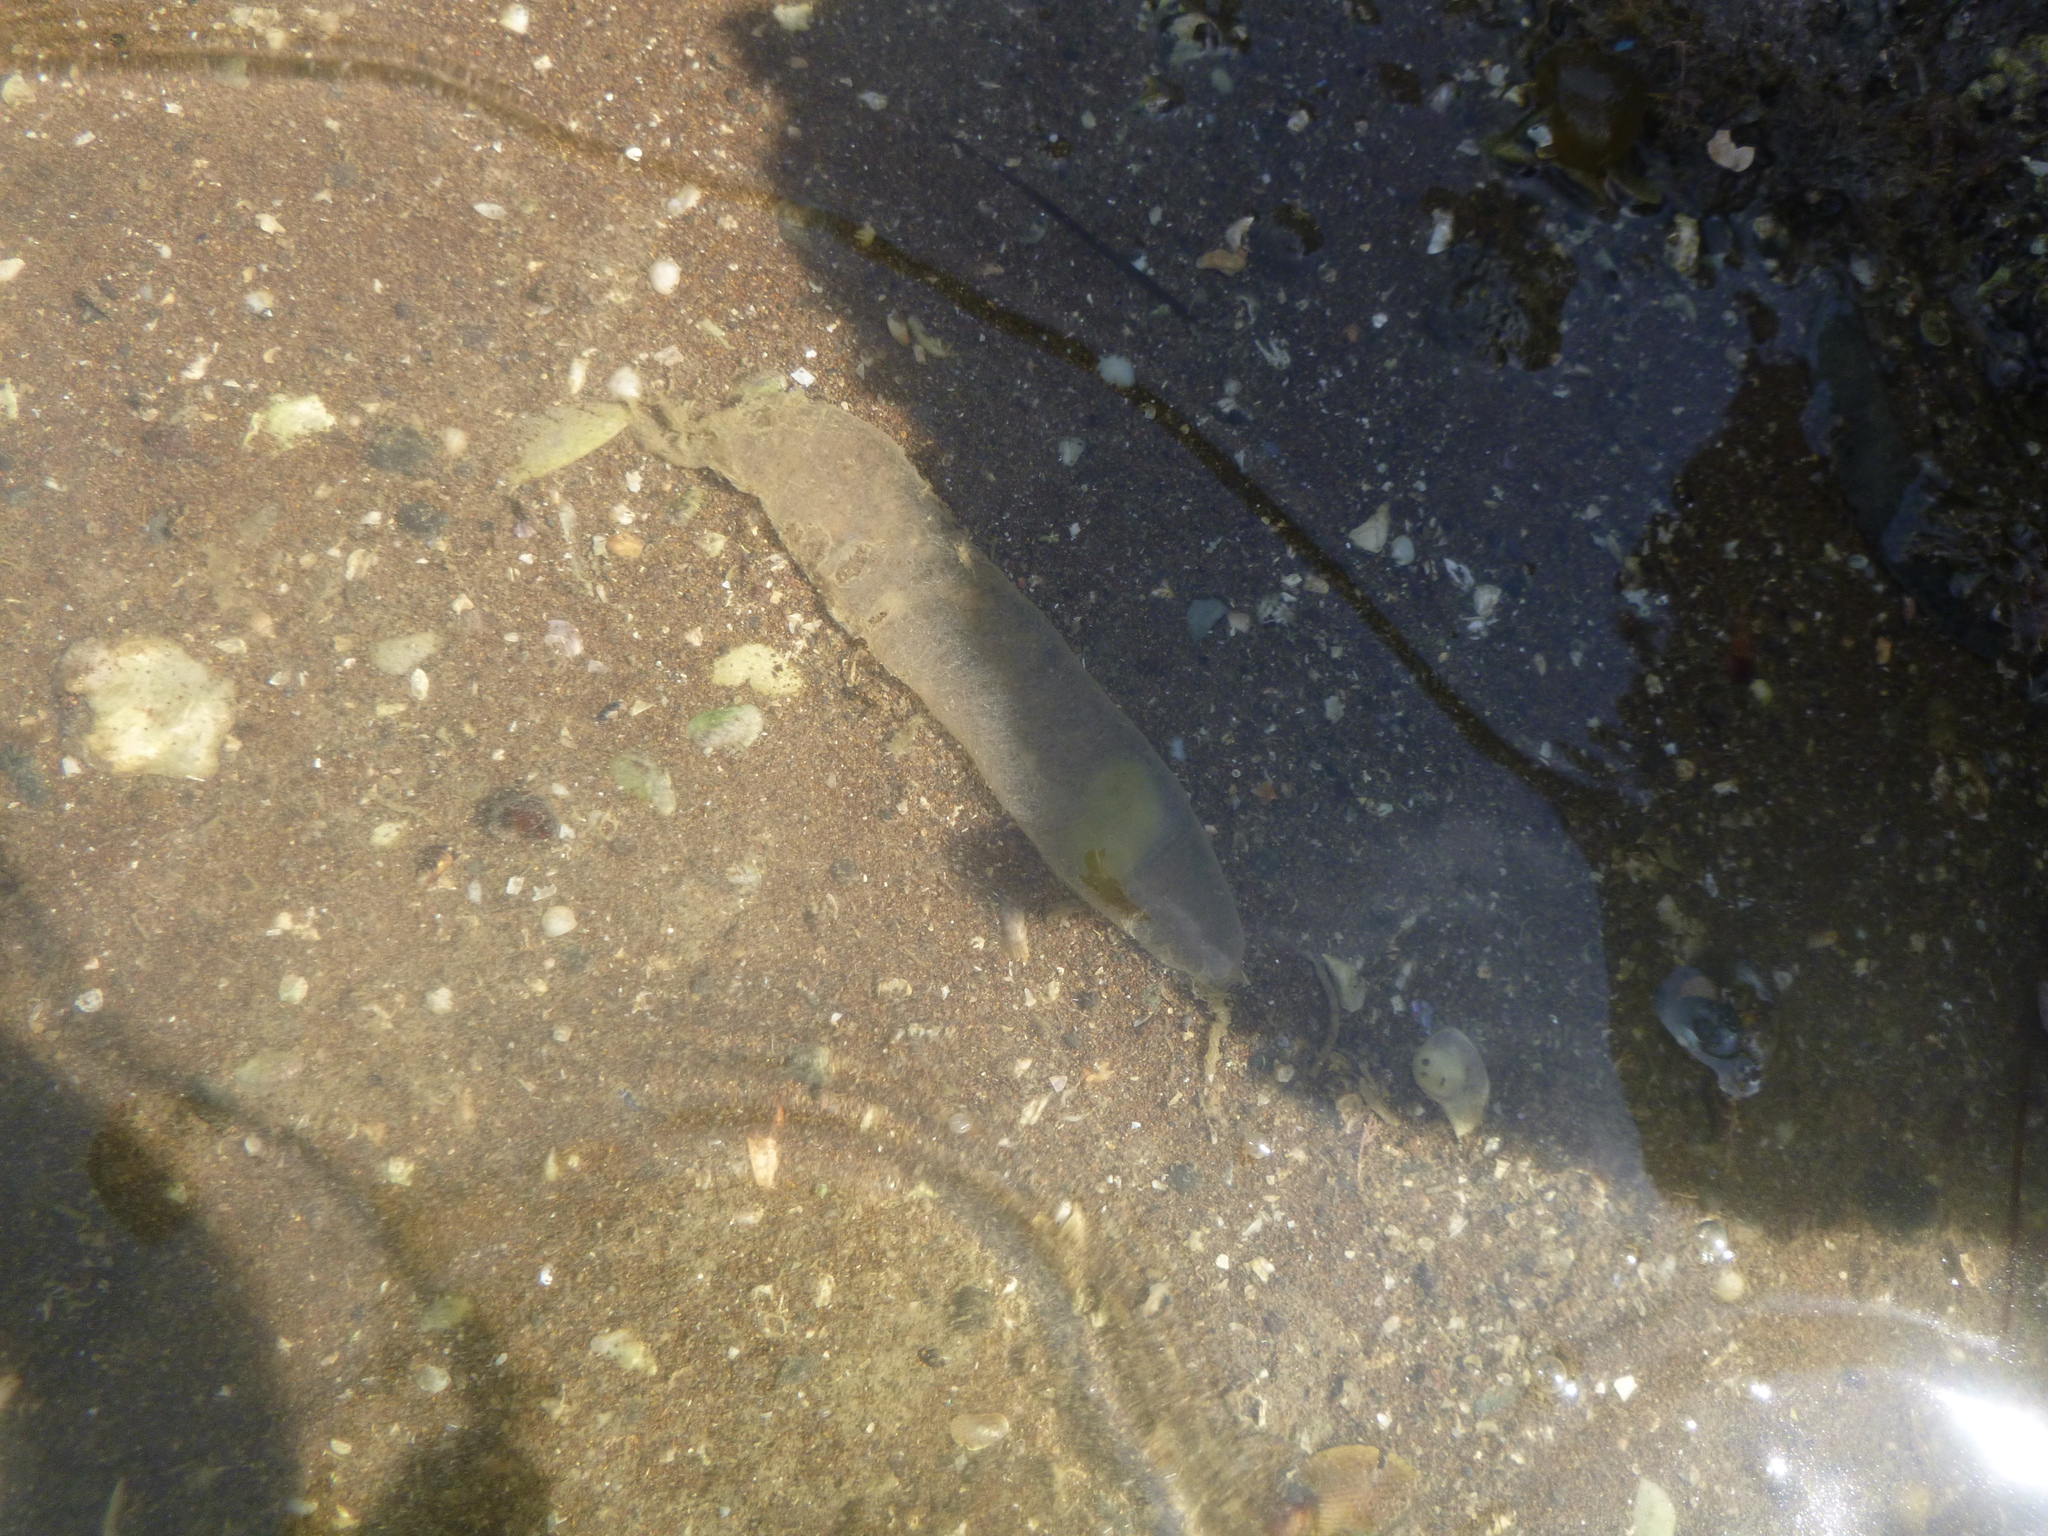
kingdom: Animalia
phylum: Annelida
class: Polychaeta
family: Flabelligeridae
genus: Flabelligera
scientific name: Flabelligera bicolor
